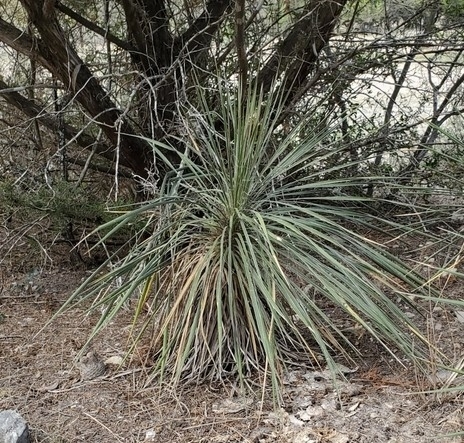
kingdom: Plantae
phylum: Tracheophyta
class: Liliopsida
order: Asparagales
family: Asparagaceae
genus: Yucca
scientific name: Yucca constricta
